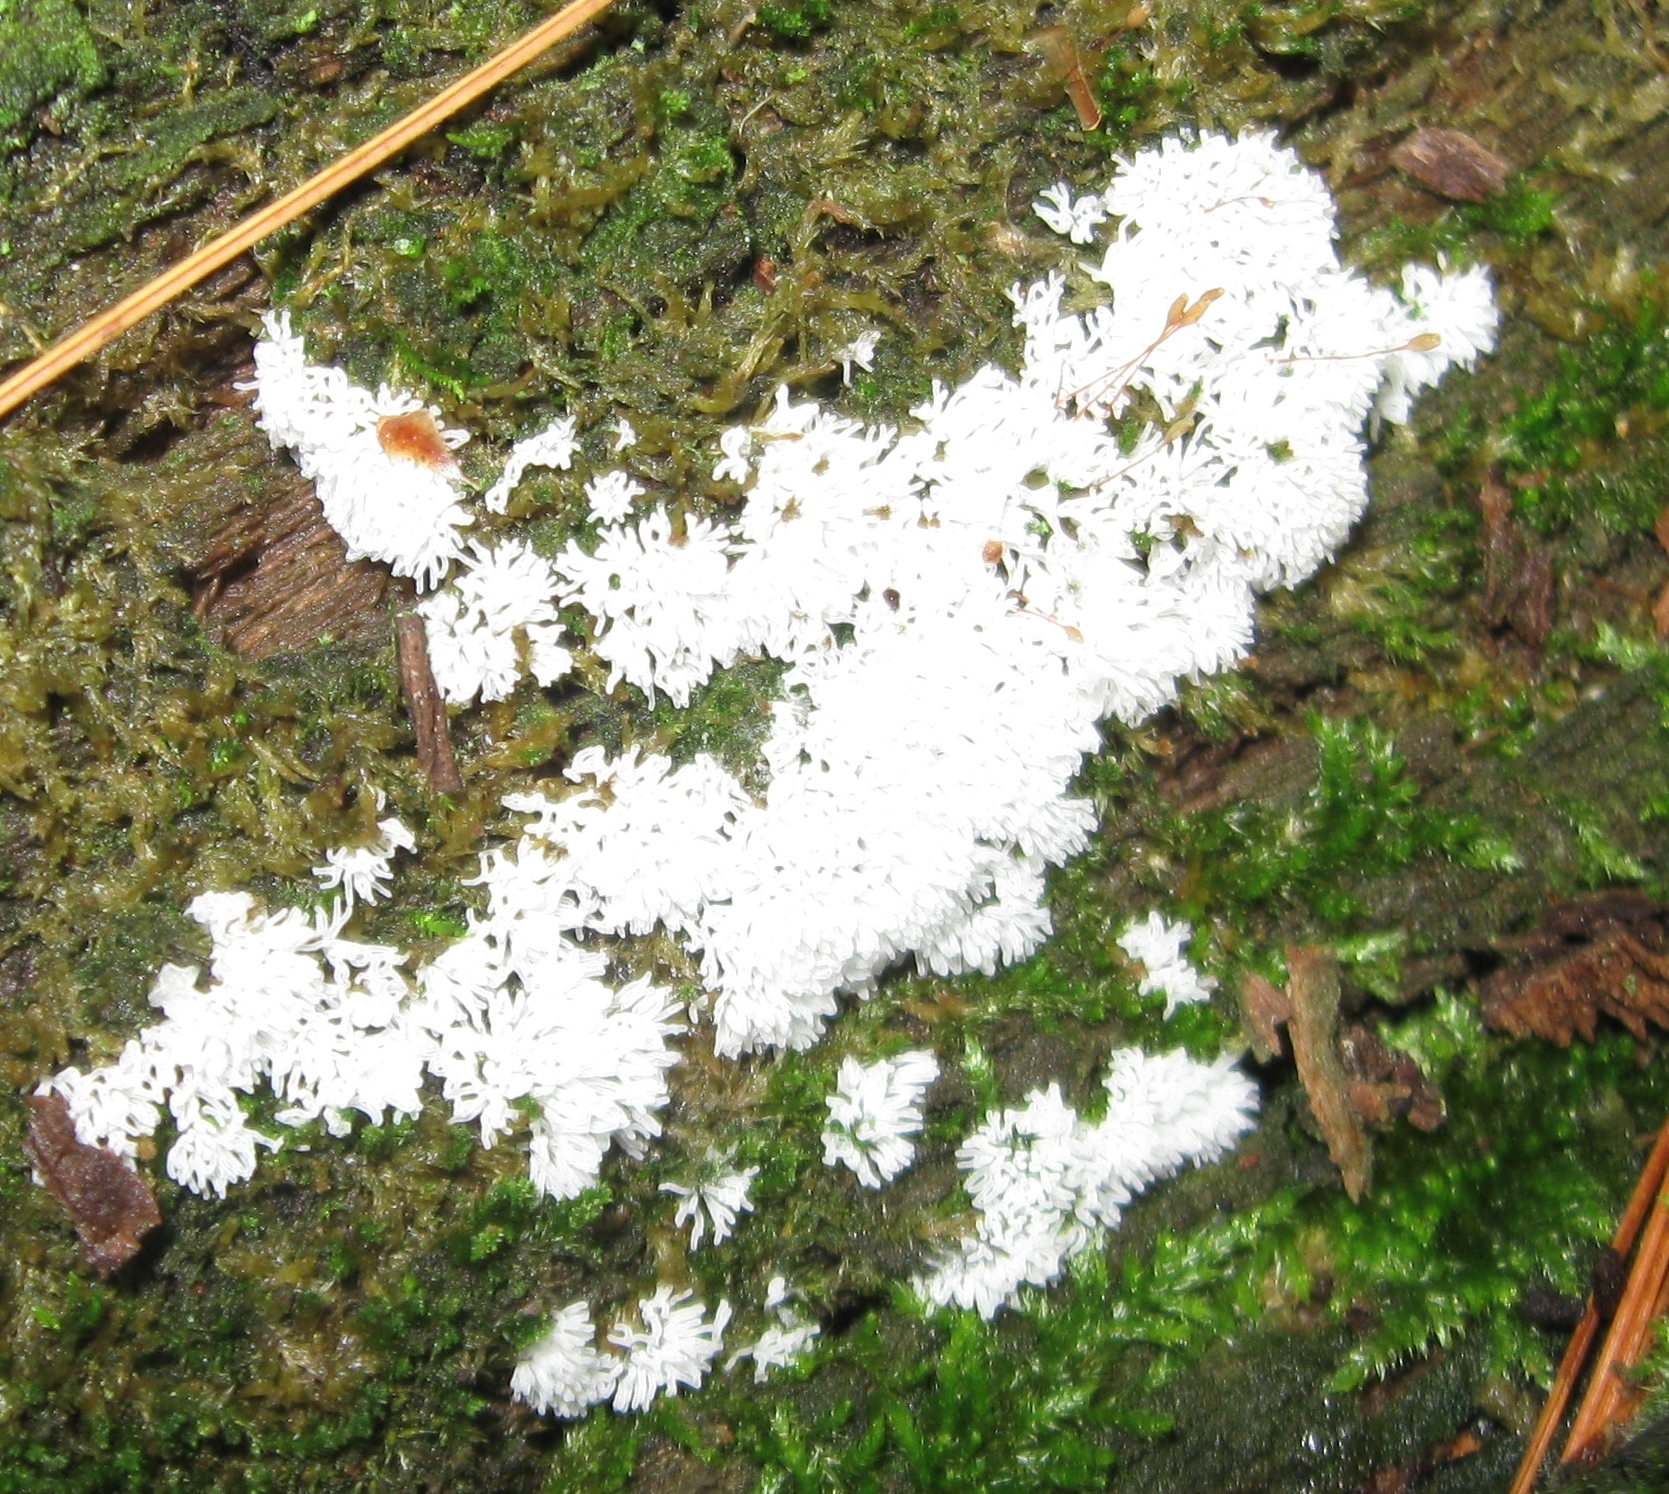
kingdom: Protozoa
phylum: Mycetozoa
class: Protosteliomycetes
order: Ceratiomyxales
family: Ceratiomyxaceae
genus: Ceratiomyxa
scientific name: Ceratiomyxa fruticulosa
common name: Honeycomb coral slime mold
